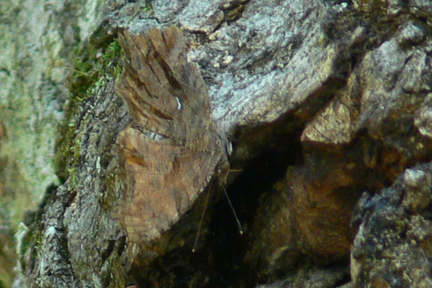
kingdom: Animalia
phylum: Arthropoda
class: Insecta
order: Lepidoptera
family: Nymphalidae
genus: Polygonia
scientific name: Polygonia comma
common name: Eastern comma
